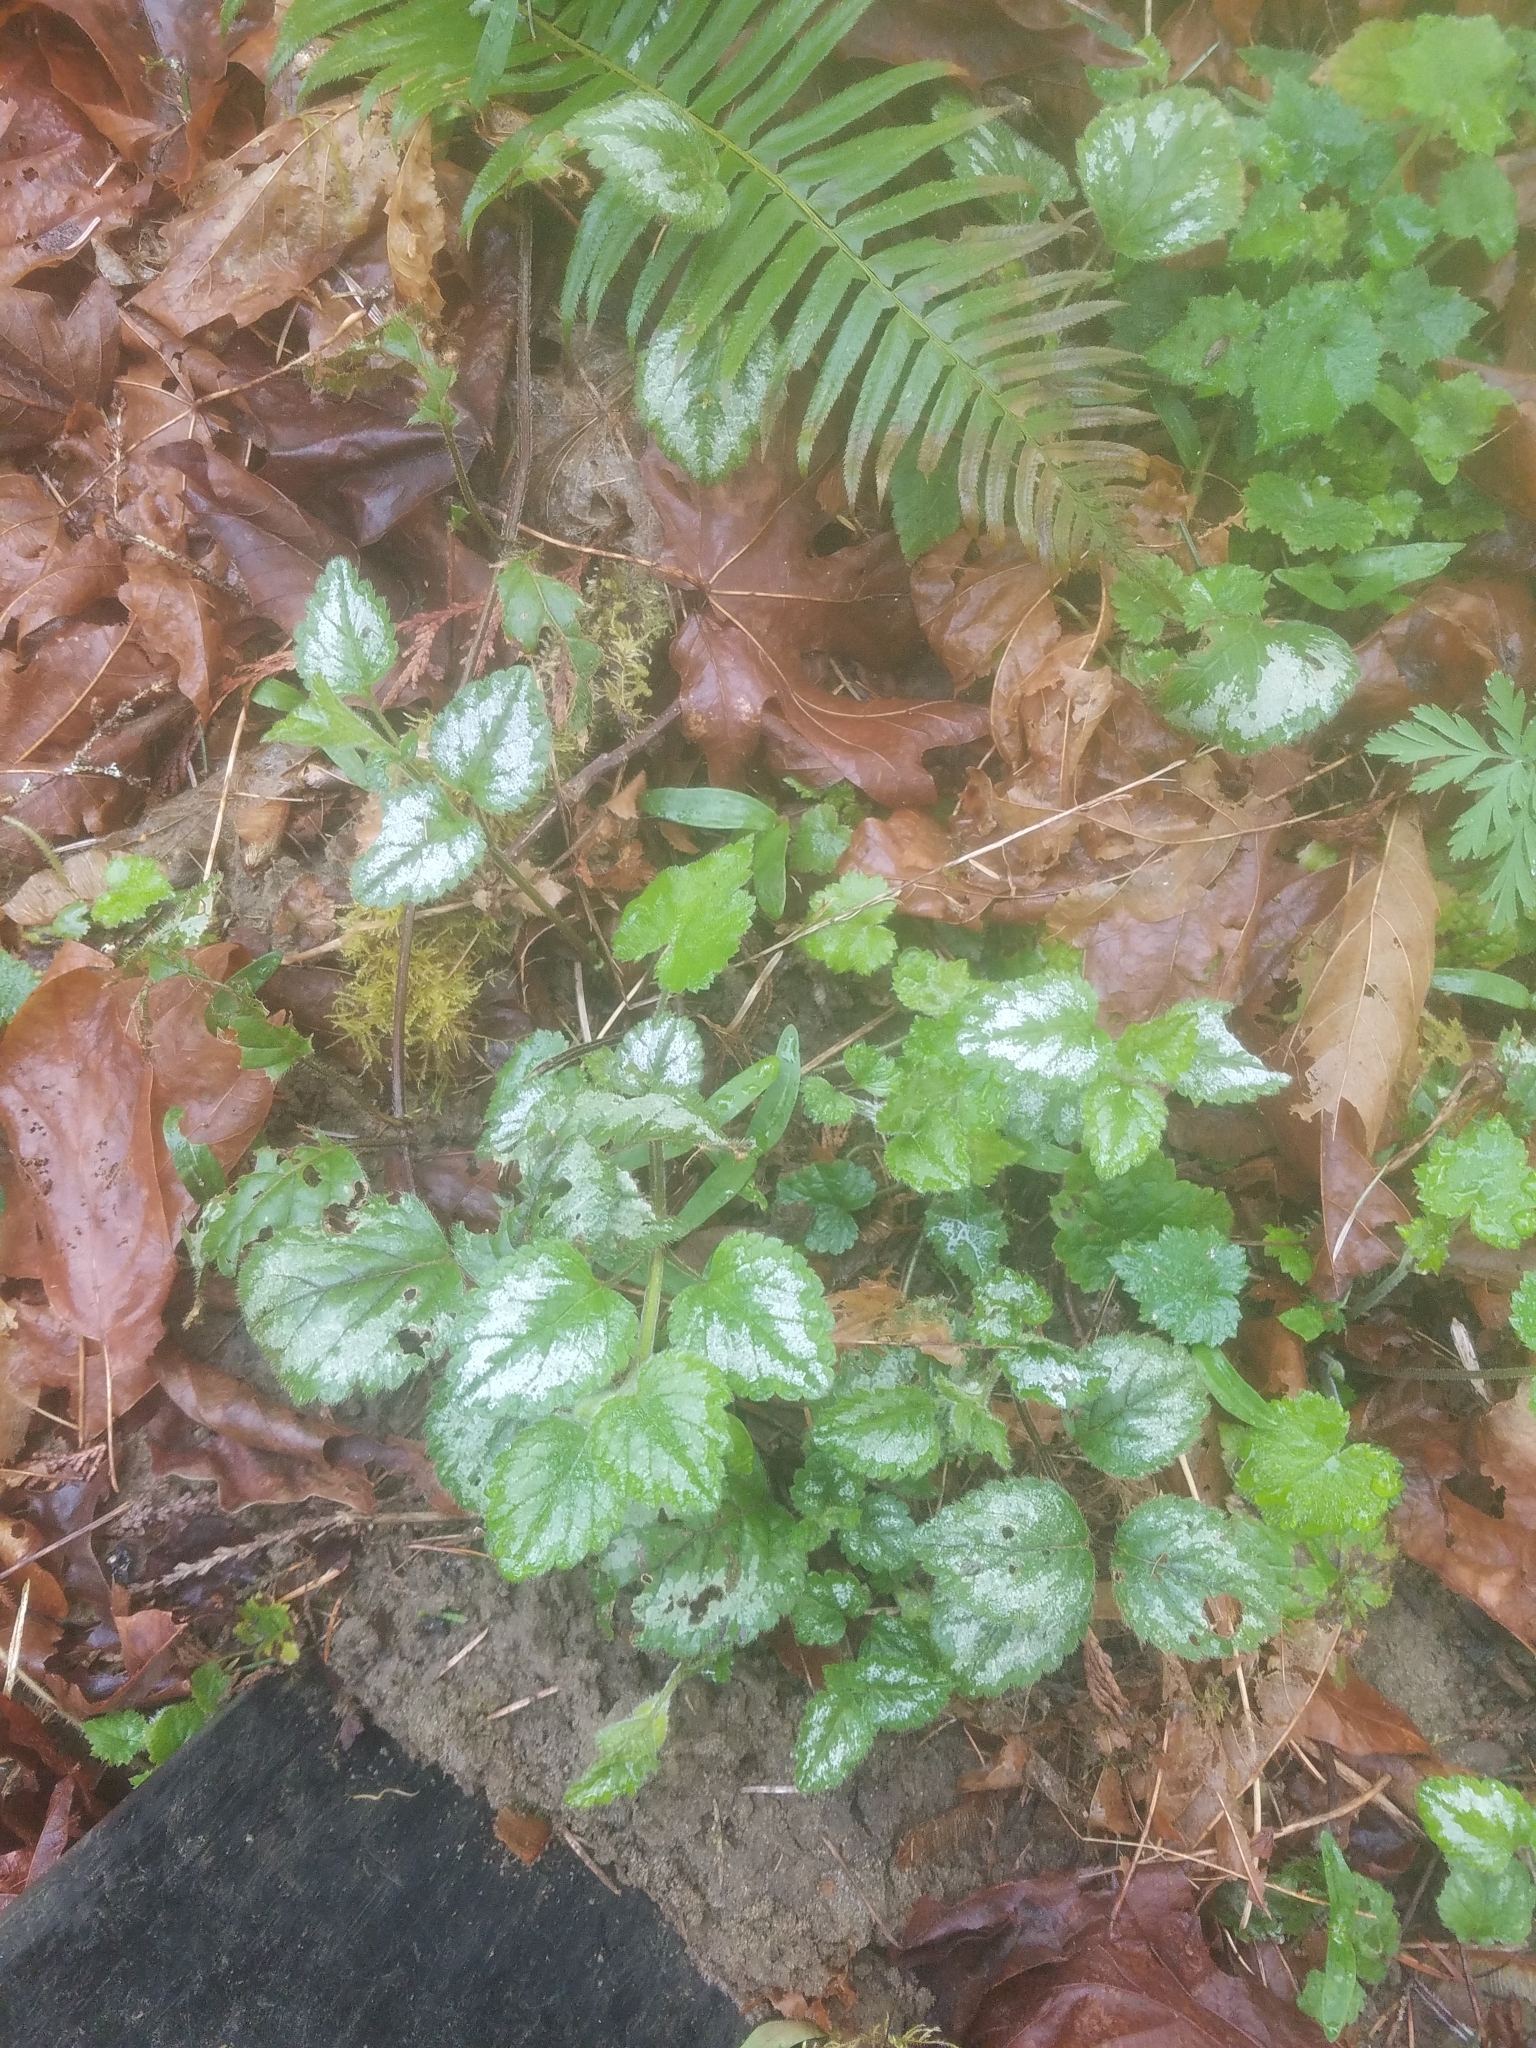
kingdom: Plantae
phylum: Tracheophyta
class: Magnoliopsida
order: Lamiales
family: Lamiaceae
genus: Lamium
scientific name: Lamium galeobdolon
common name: Yellow archangel
